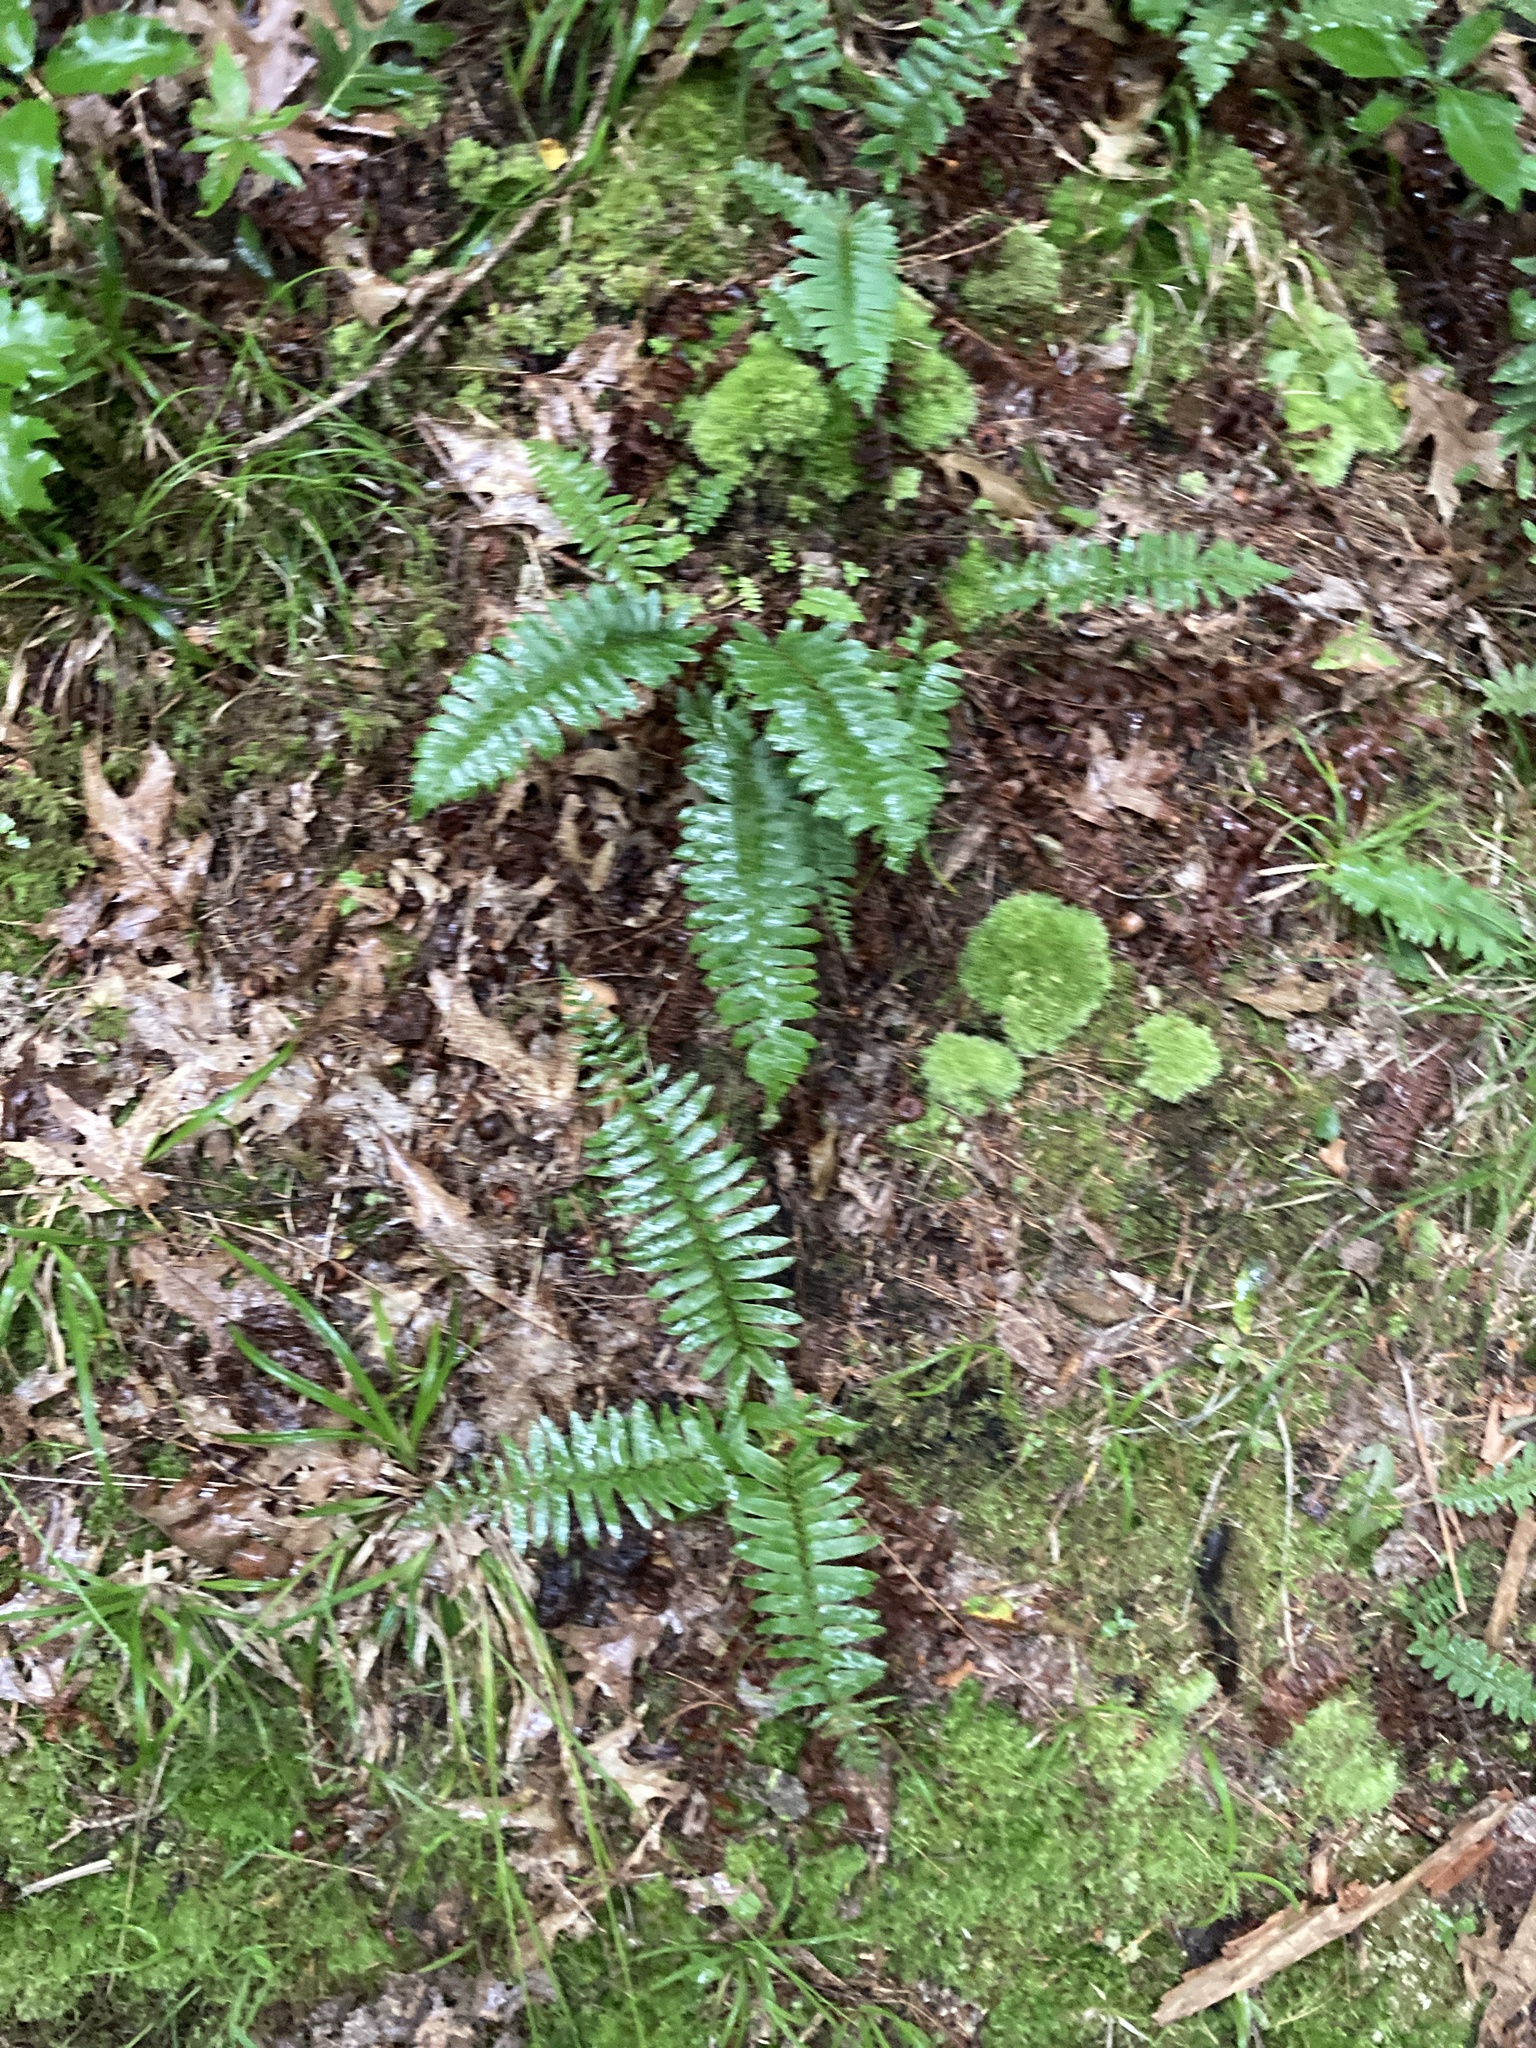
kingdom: Plantae
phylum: Tracheophyta
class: Polypodiopsida
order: Polypodiales
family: Dryopteridaceae
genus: Polystichum
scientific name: Polystichum acrostichoides
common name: Christmas fern
